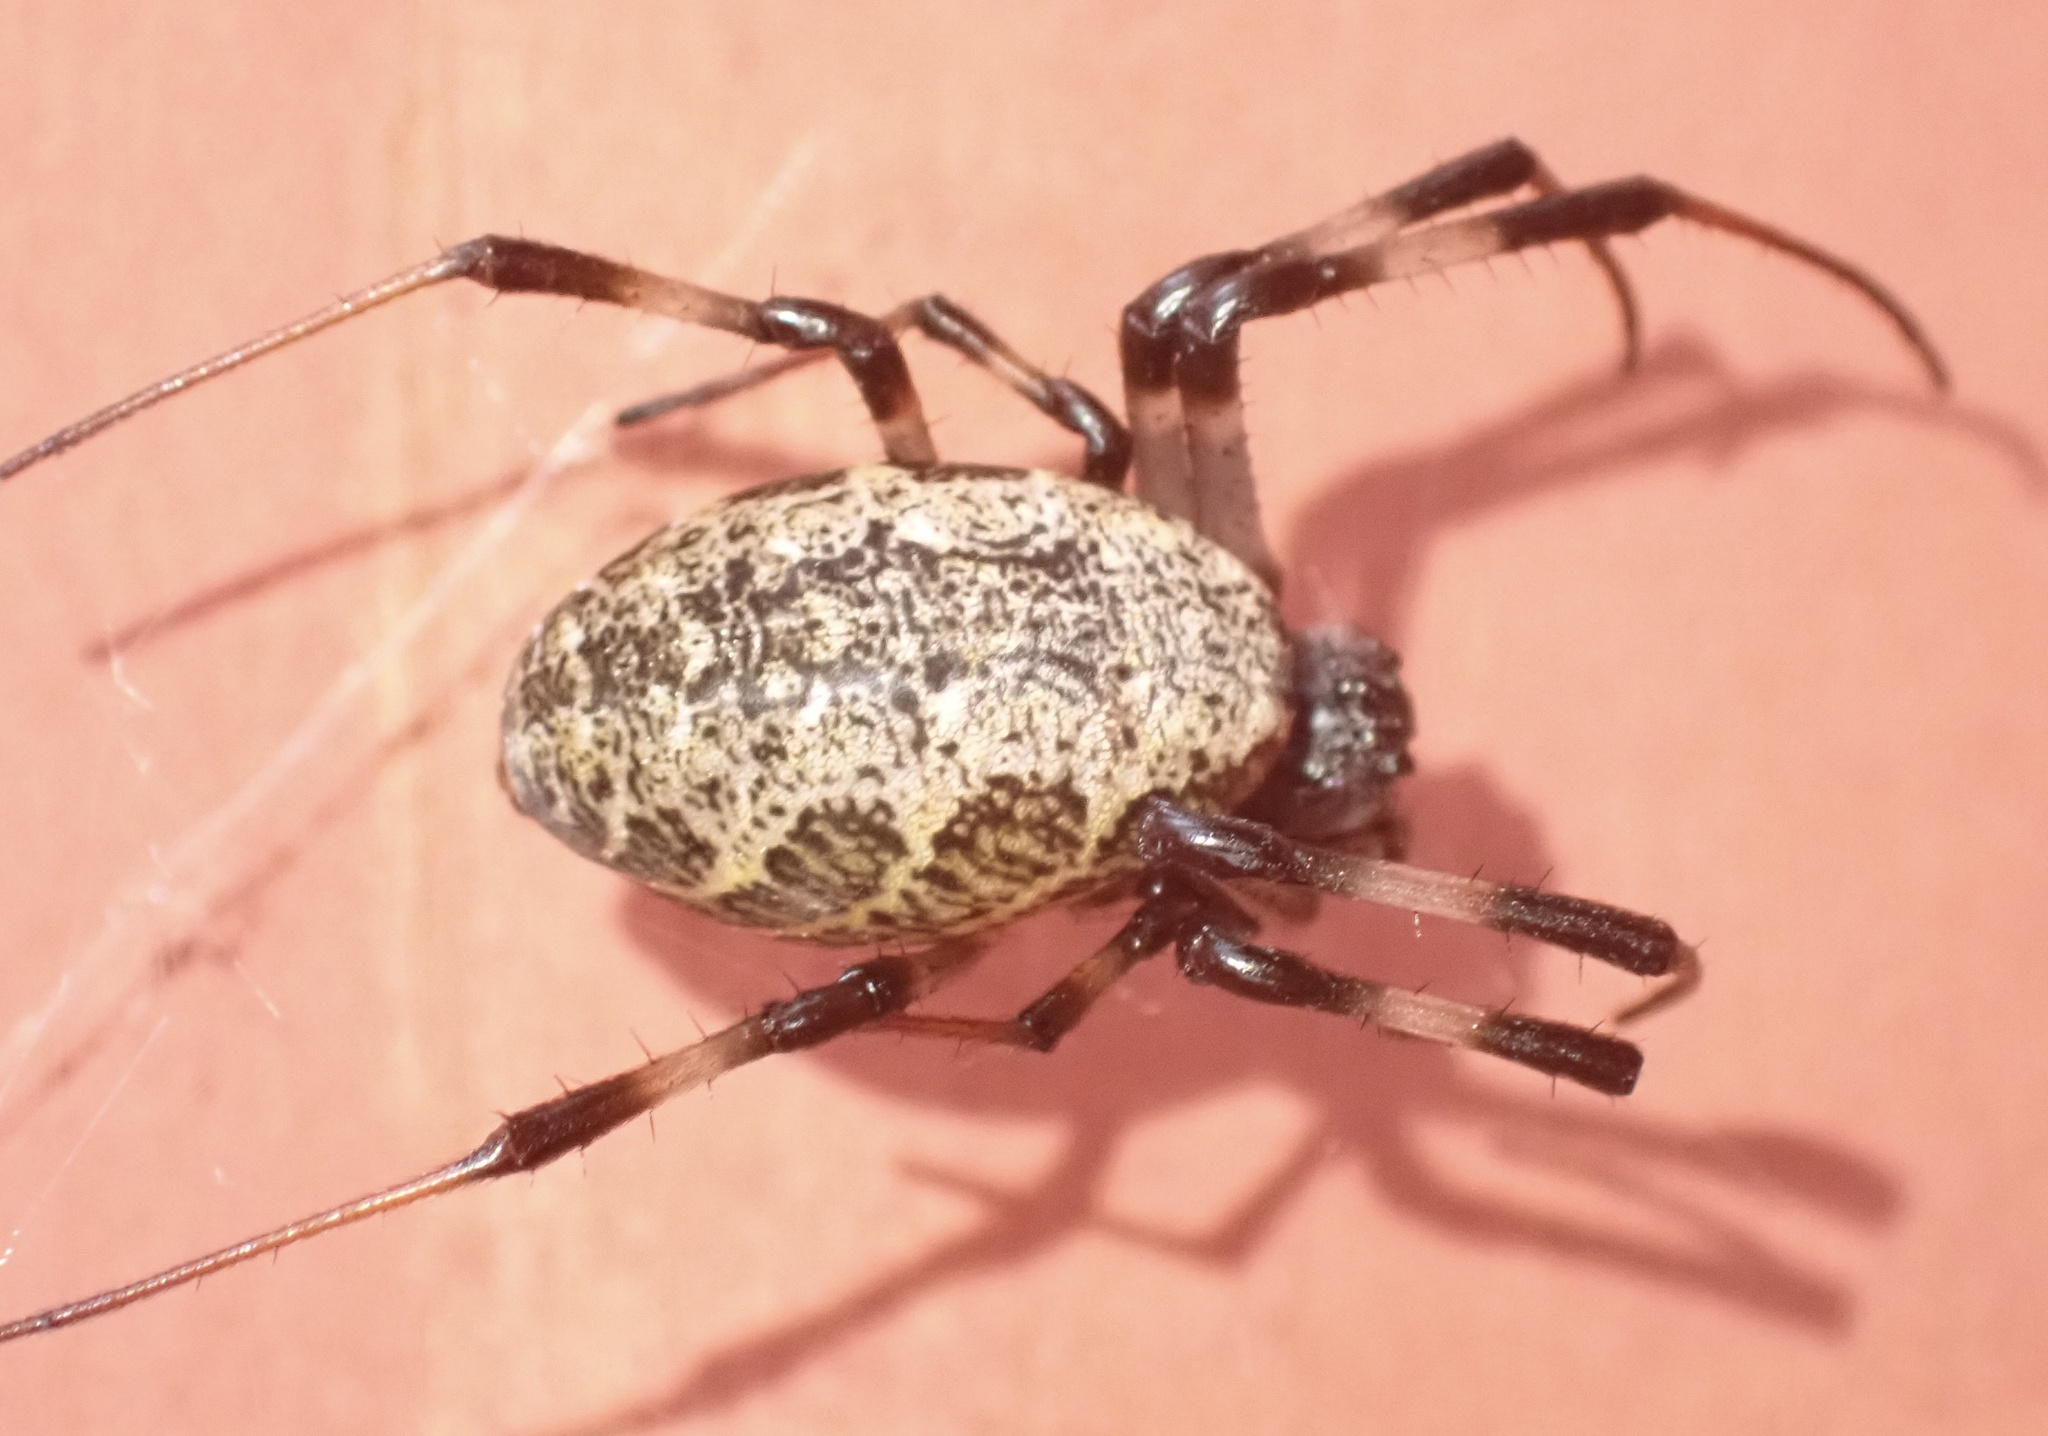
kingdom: Animalia
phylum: Arthropoda
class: Arachnida
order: Araneae
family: Araneidae
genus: Nephilengys
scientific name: Nephilengys malabarensis
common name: Asian hermit spider
